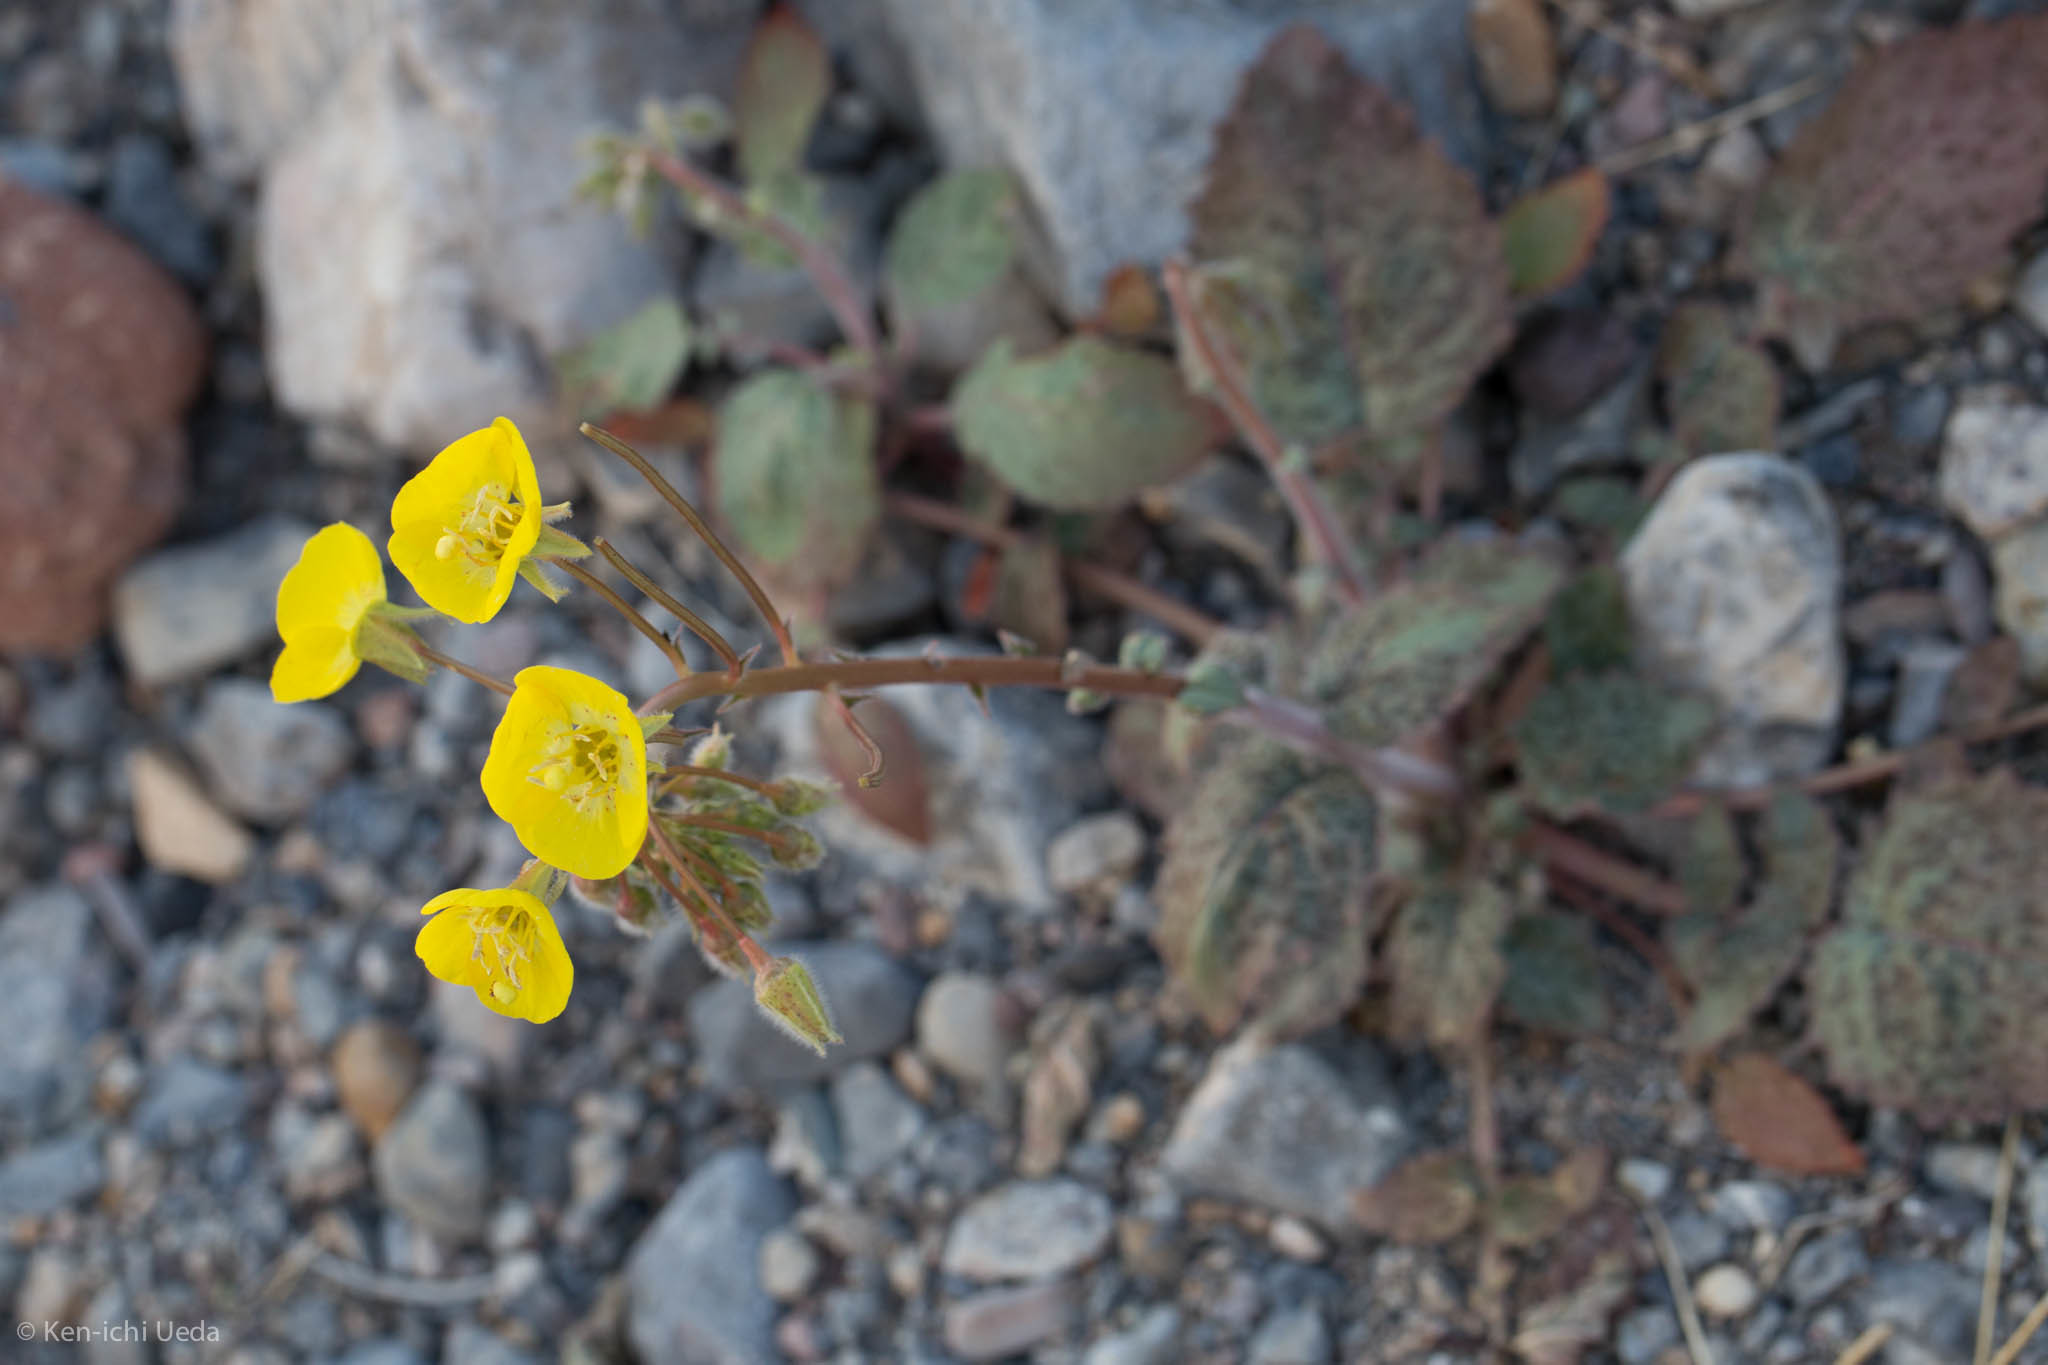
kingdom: Plantae
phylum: Tracheophyta
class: Magnoliopsida
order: Myrtales
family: Onagraceae
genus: Chylismia
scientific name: Chylismia brevipes
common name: Yellow cups
